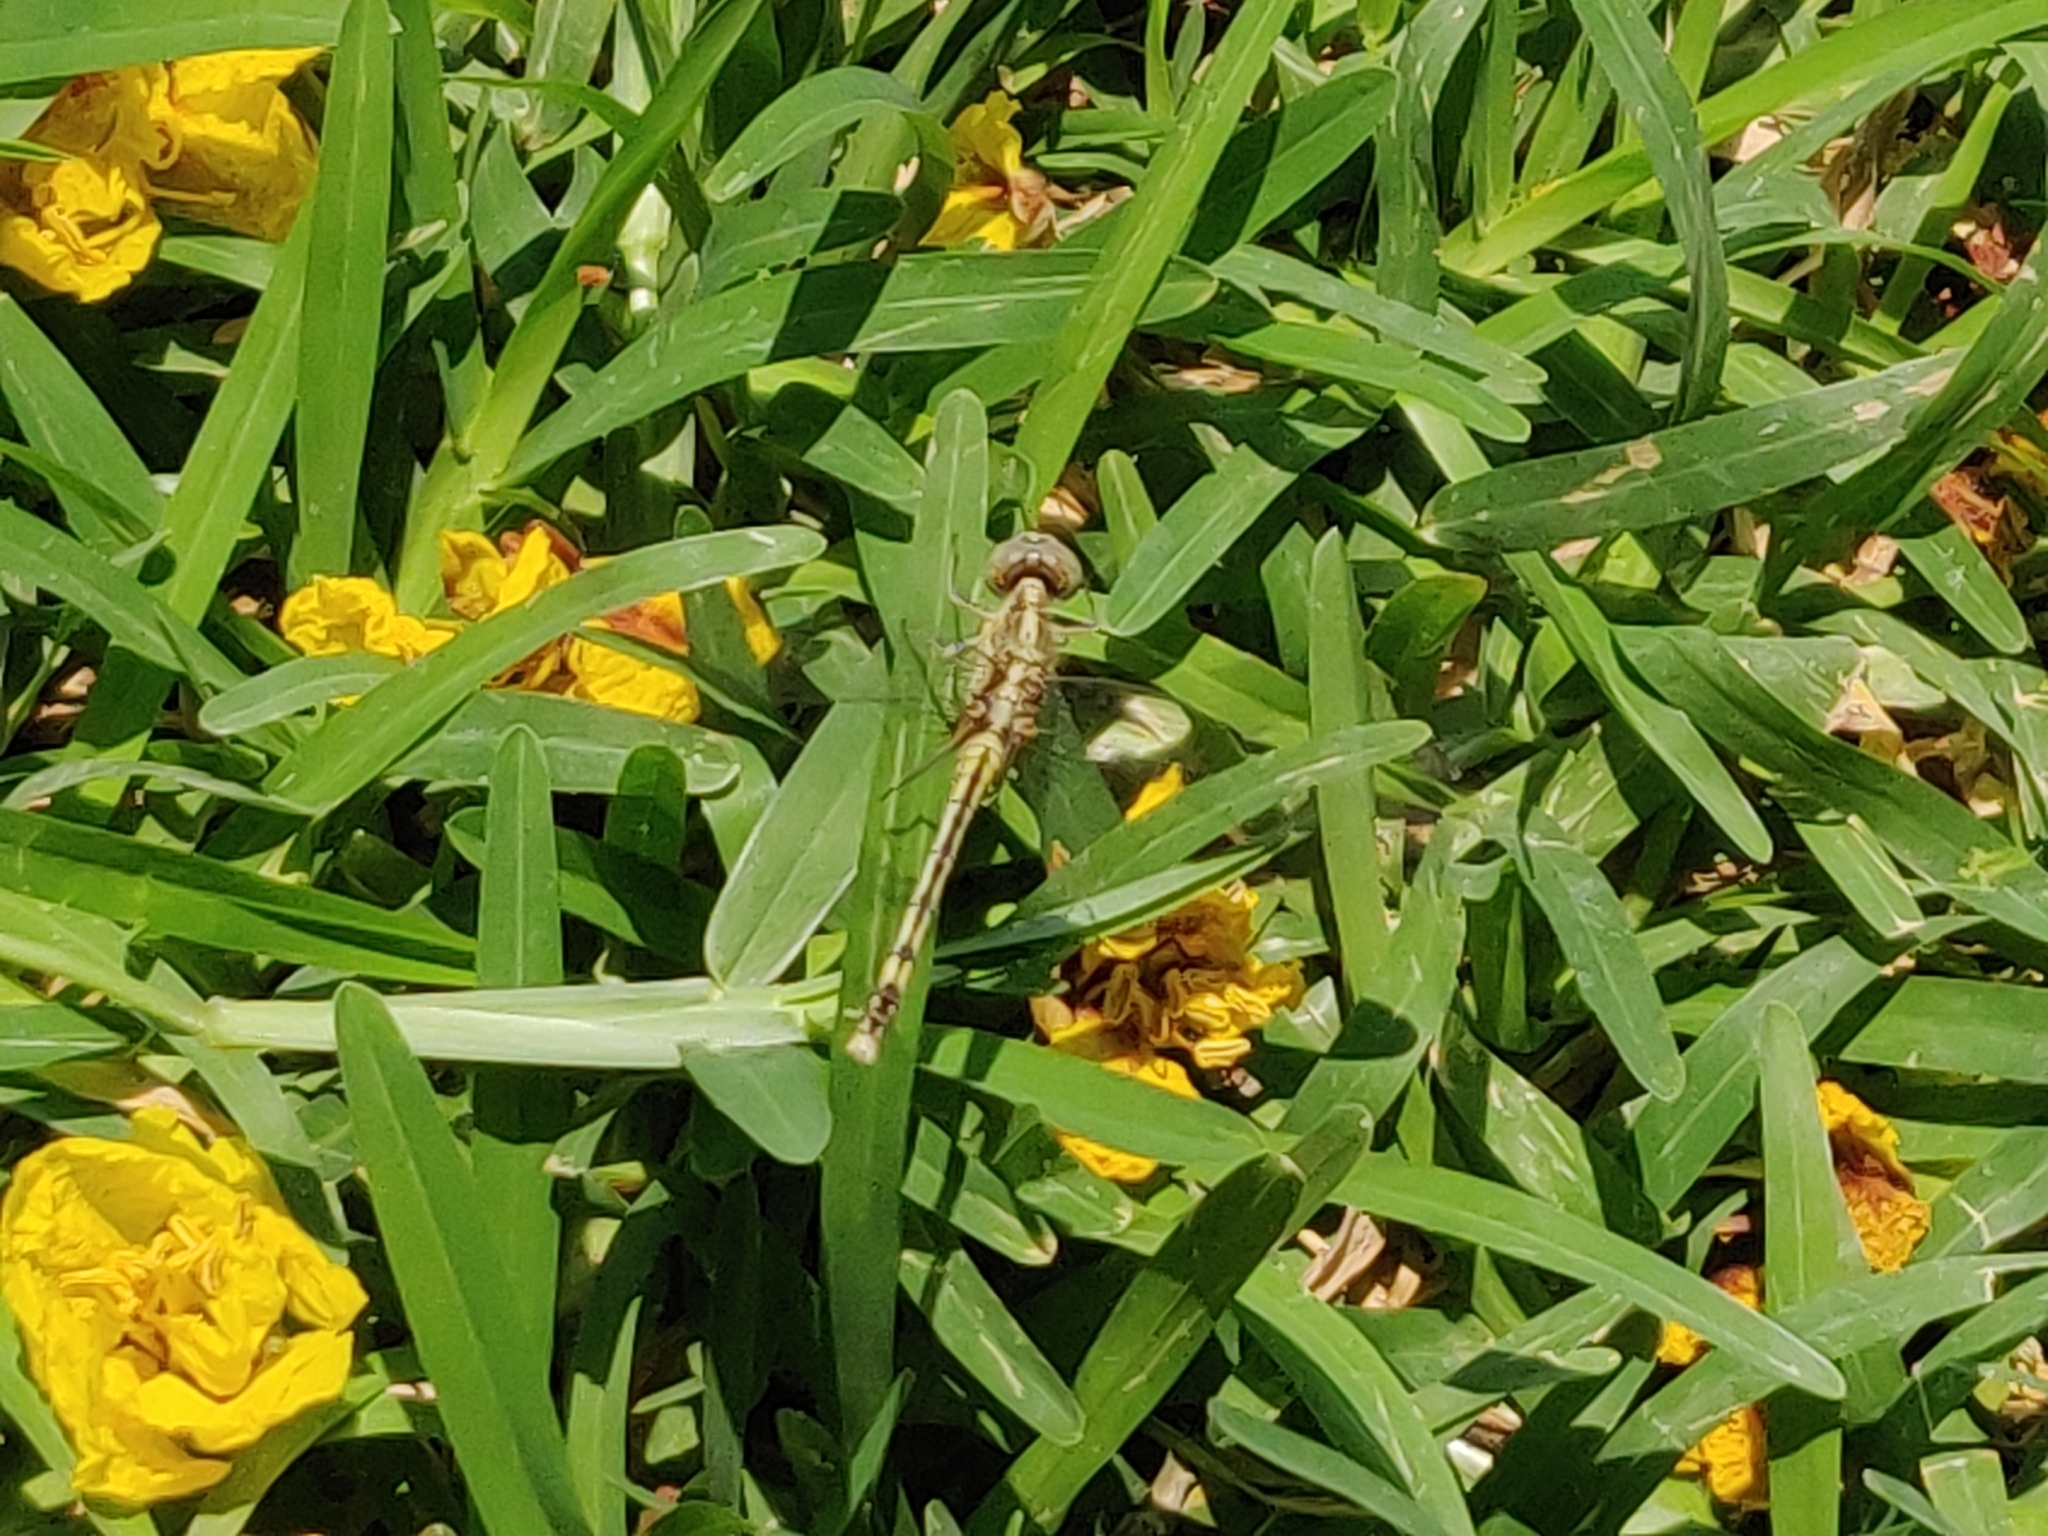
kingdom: Animalia
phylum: Arthropoda
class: Insecta
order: Odonata
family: Libellulidae
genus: Diplacodes
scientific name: Diplacodes trivialis
